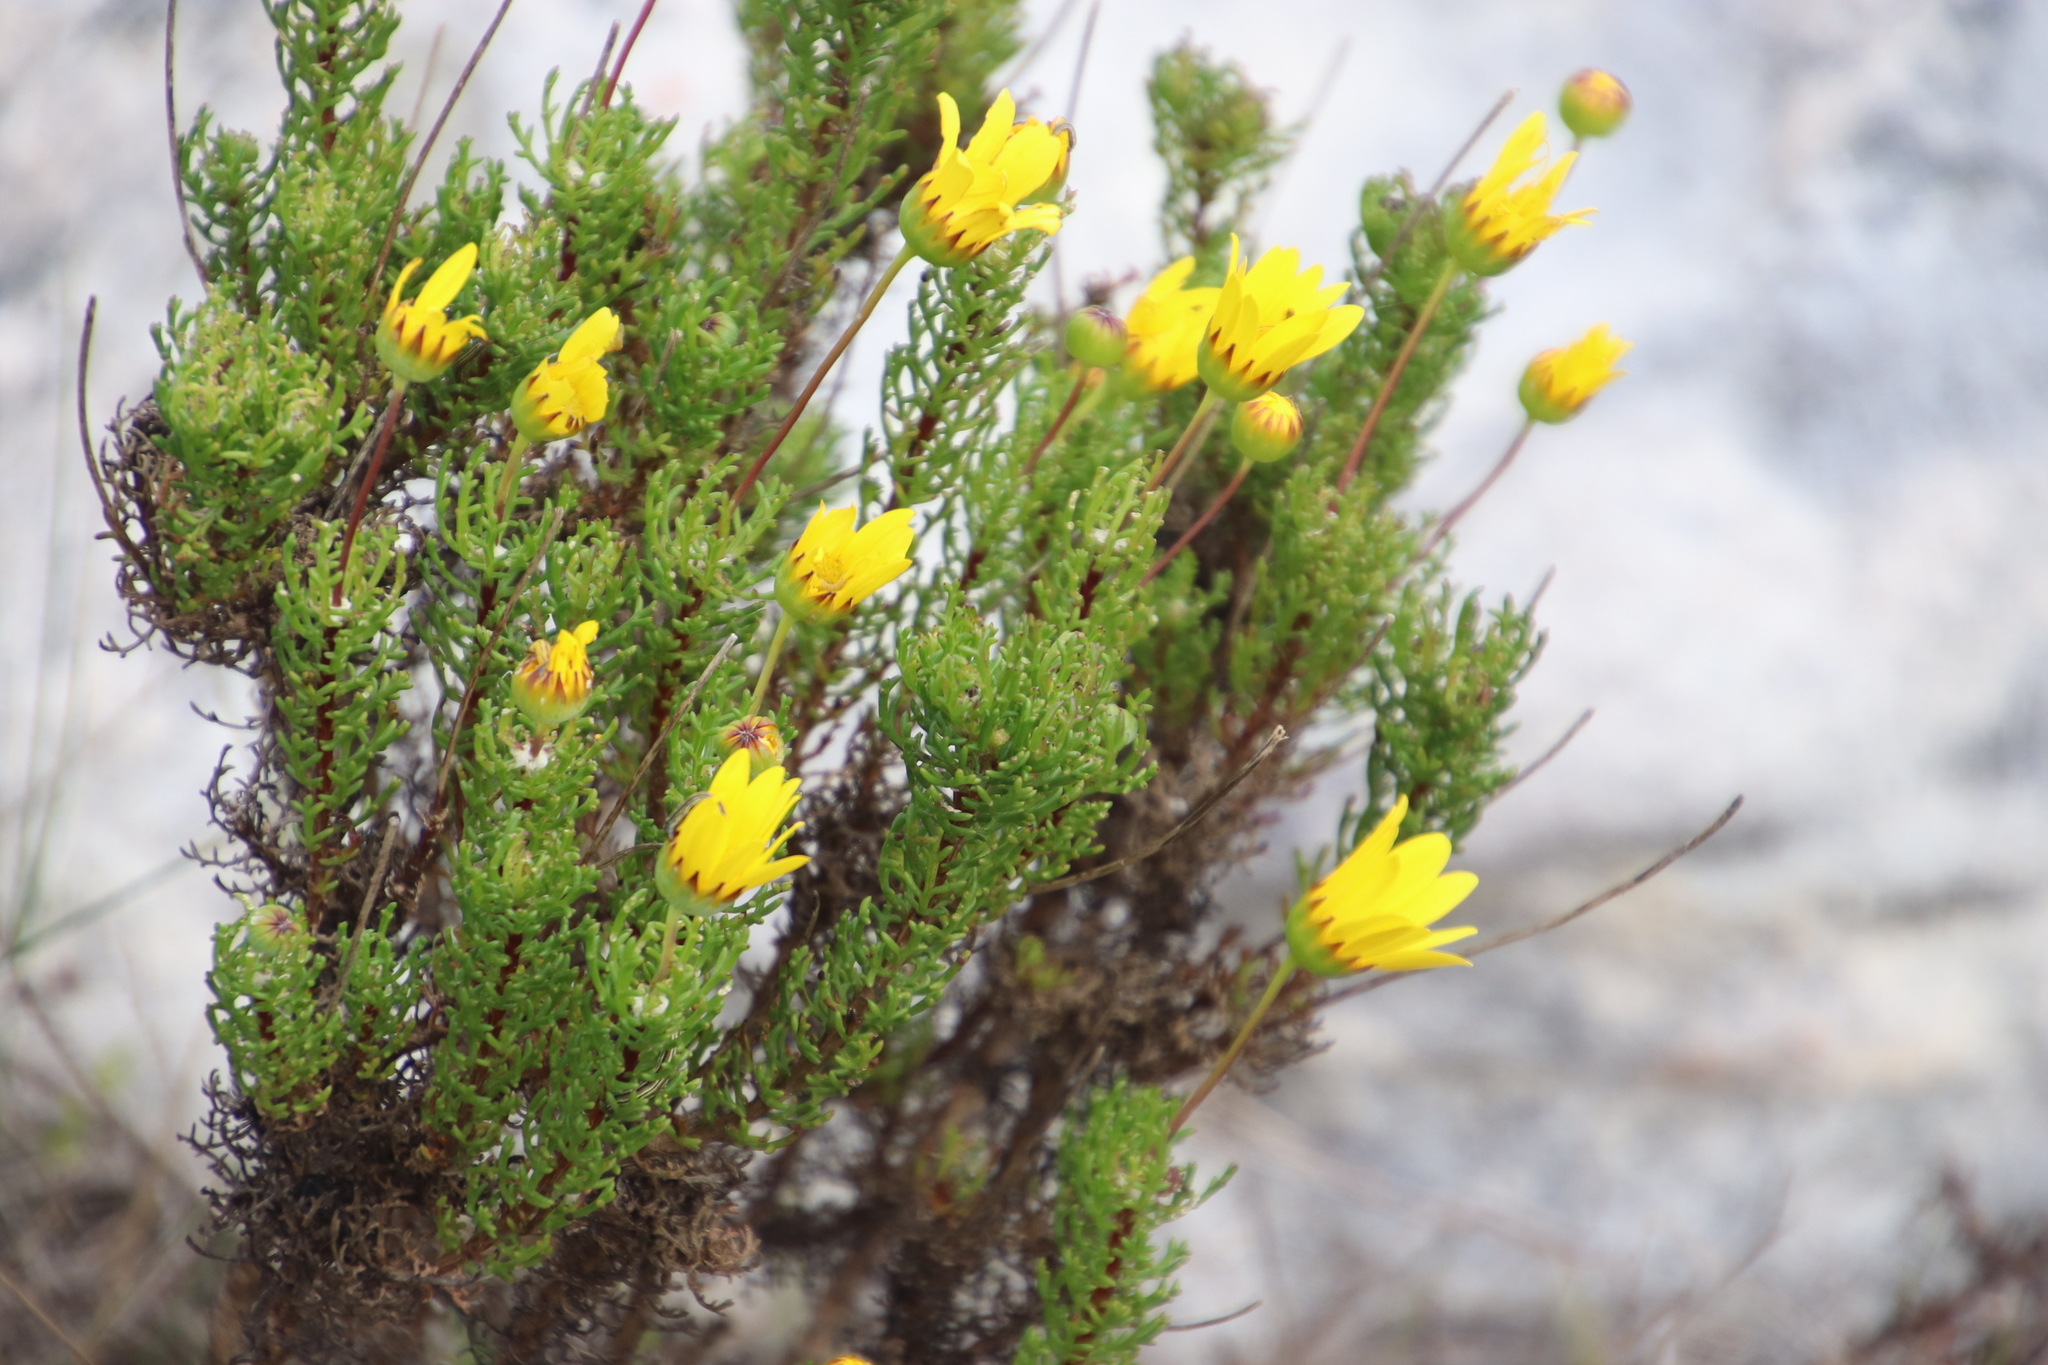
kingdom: Plantae
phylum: Tracheophyta
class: Magnoliopsida
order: Asterales
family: Asteraceae
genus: Euryops
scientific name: Euryops abrotanifolius
